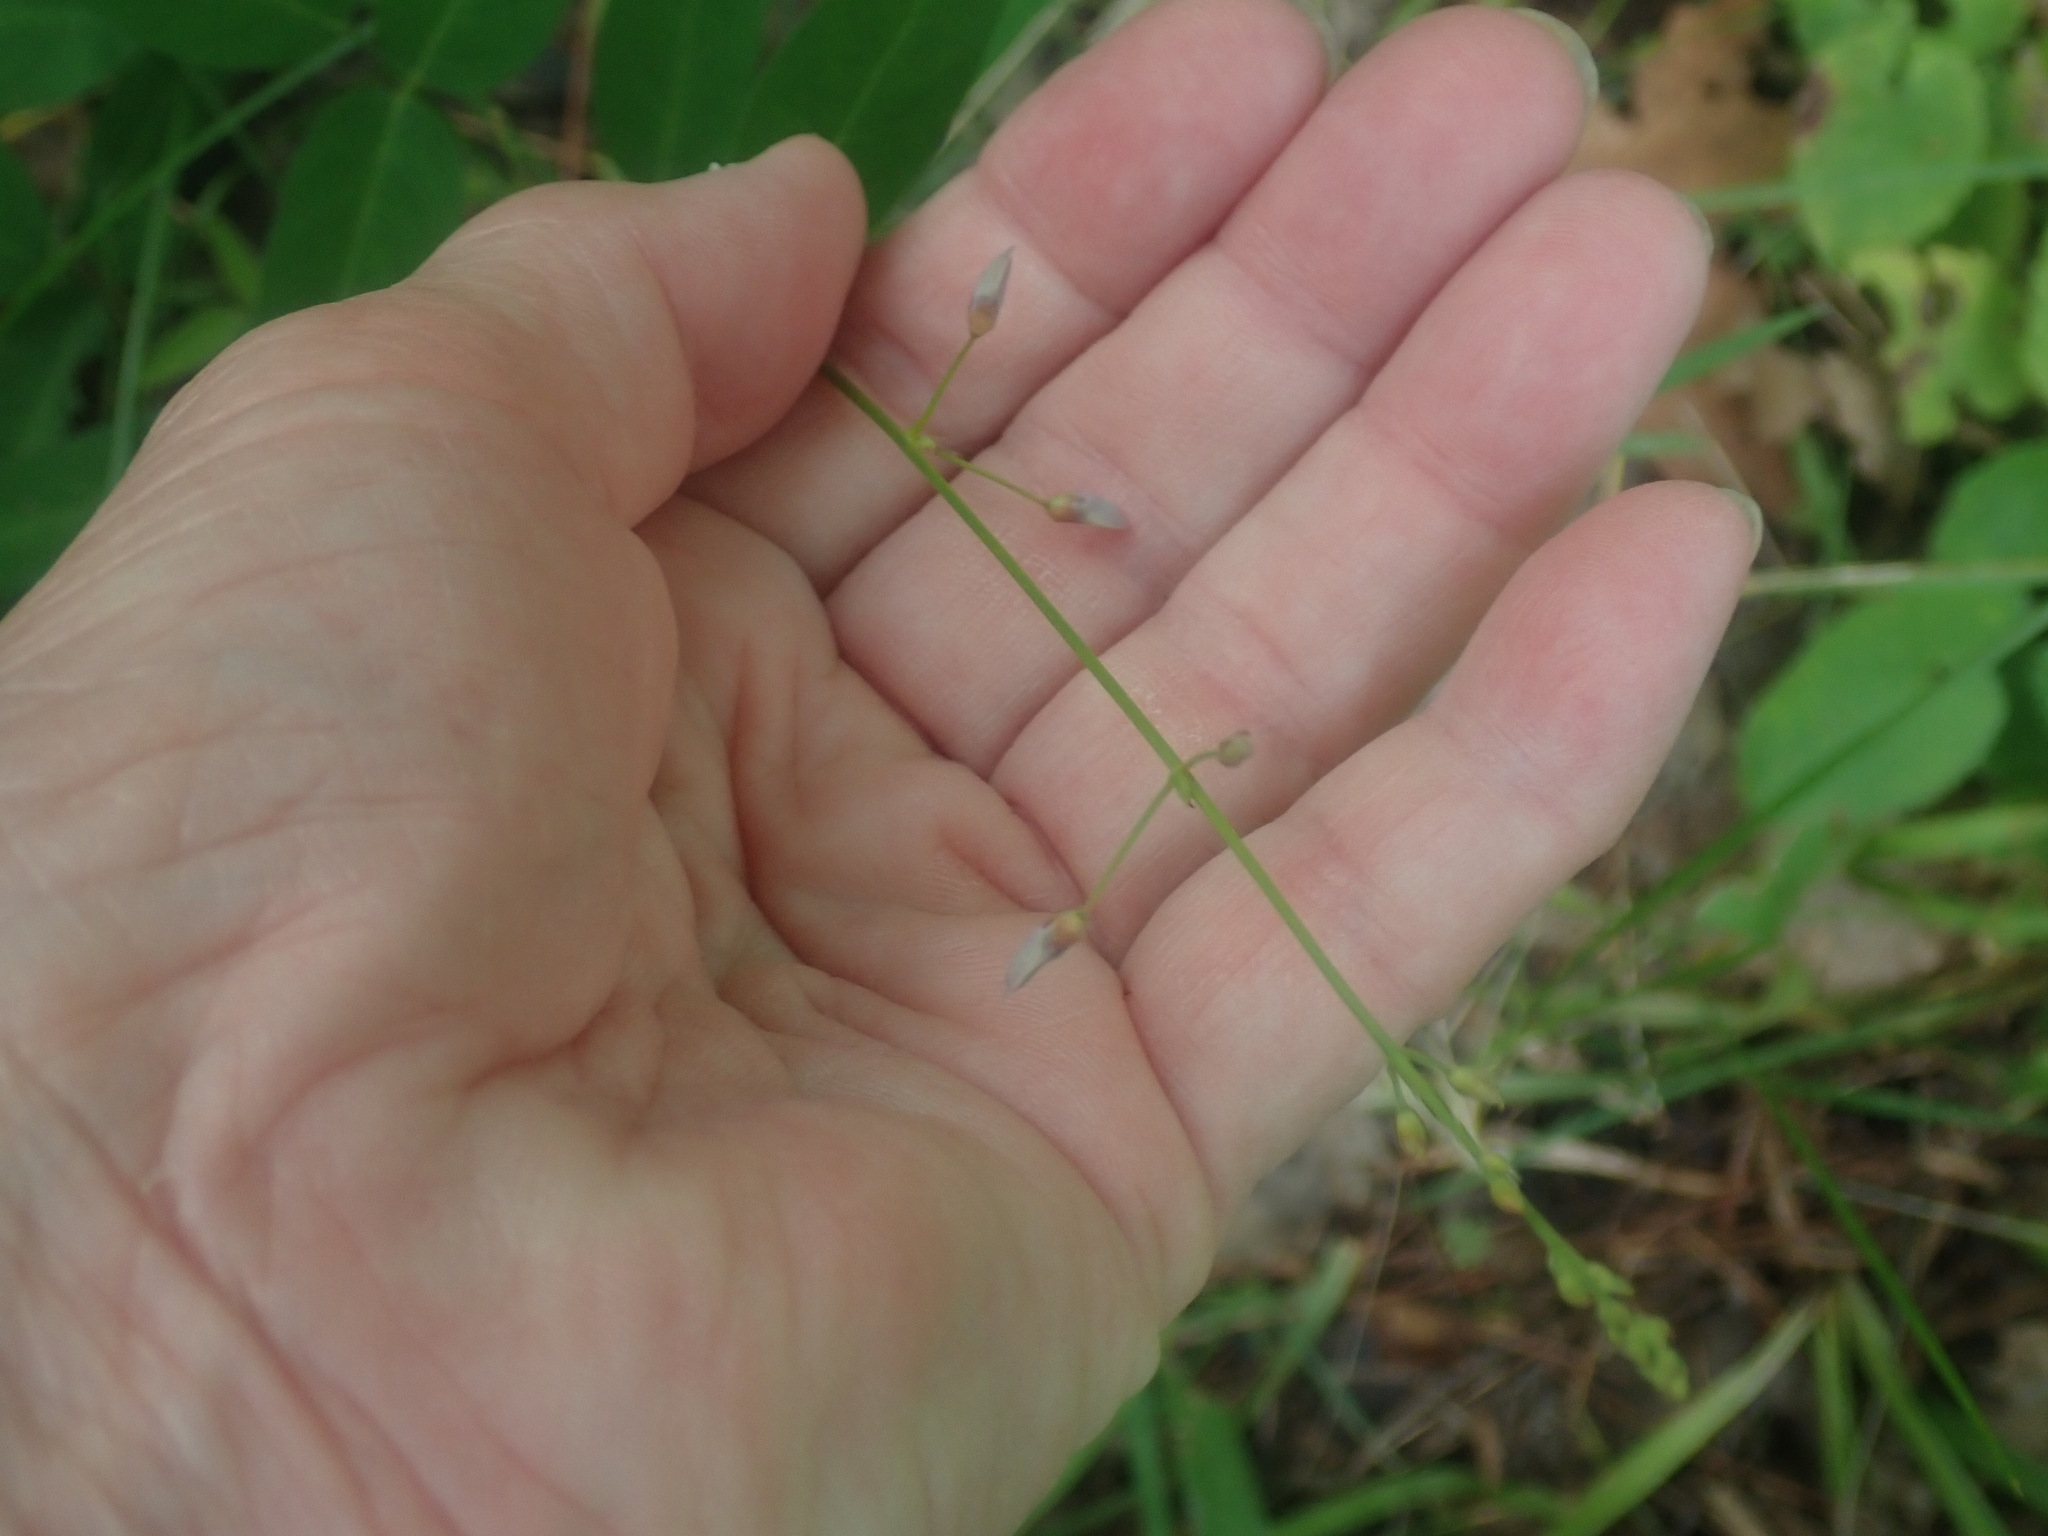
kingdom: Plantae
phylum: Tracheophyta
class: Magnoliopsida
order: Fabales
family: Fabaceae
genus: Desmodium
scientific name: Desmodium paniculatum
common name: Panicled tick-clover
